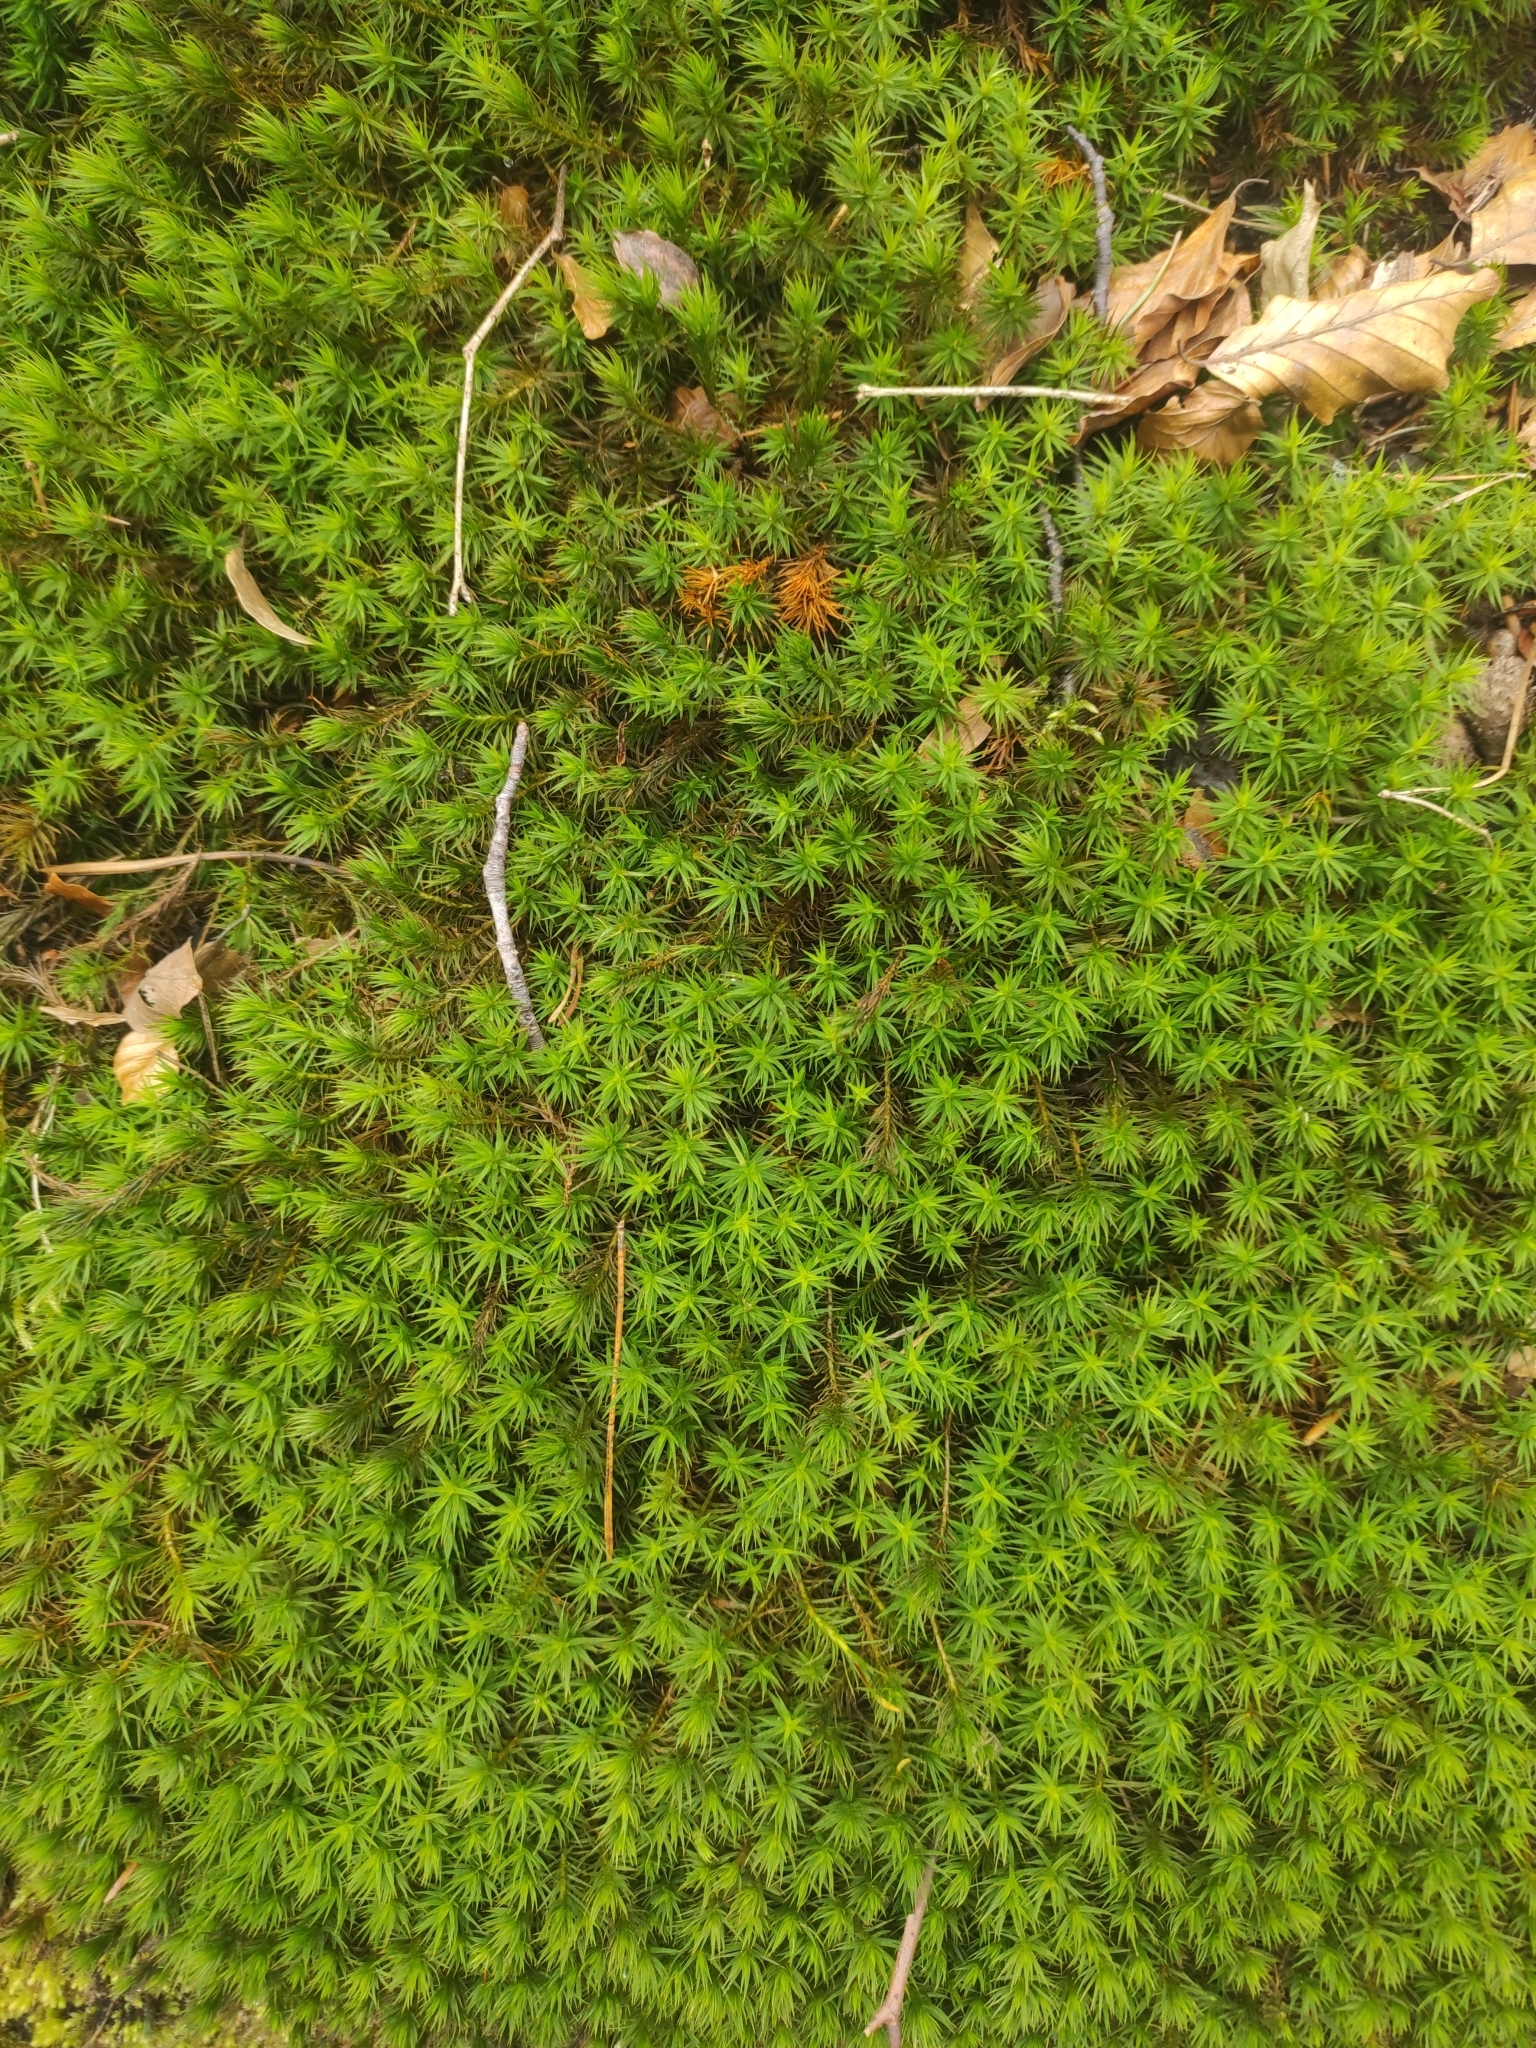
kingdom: Plantae
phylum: Bryophyta
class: Polytrichopsida
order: Polytrichales
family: Polytrichaceae
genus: Polytrichum
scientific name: Polytrichum formosum
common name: Bank haircap moss
